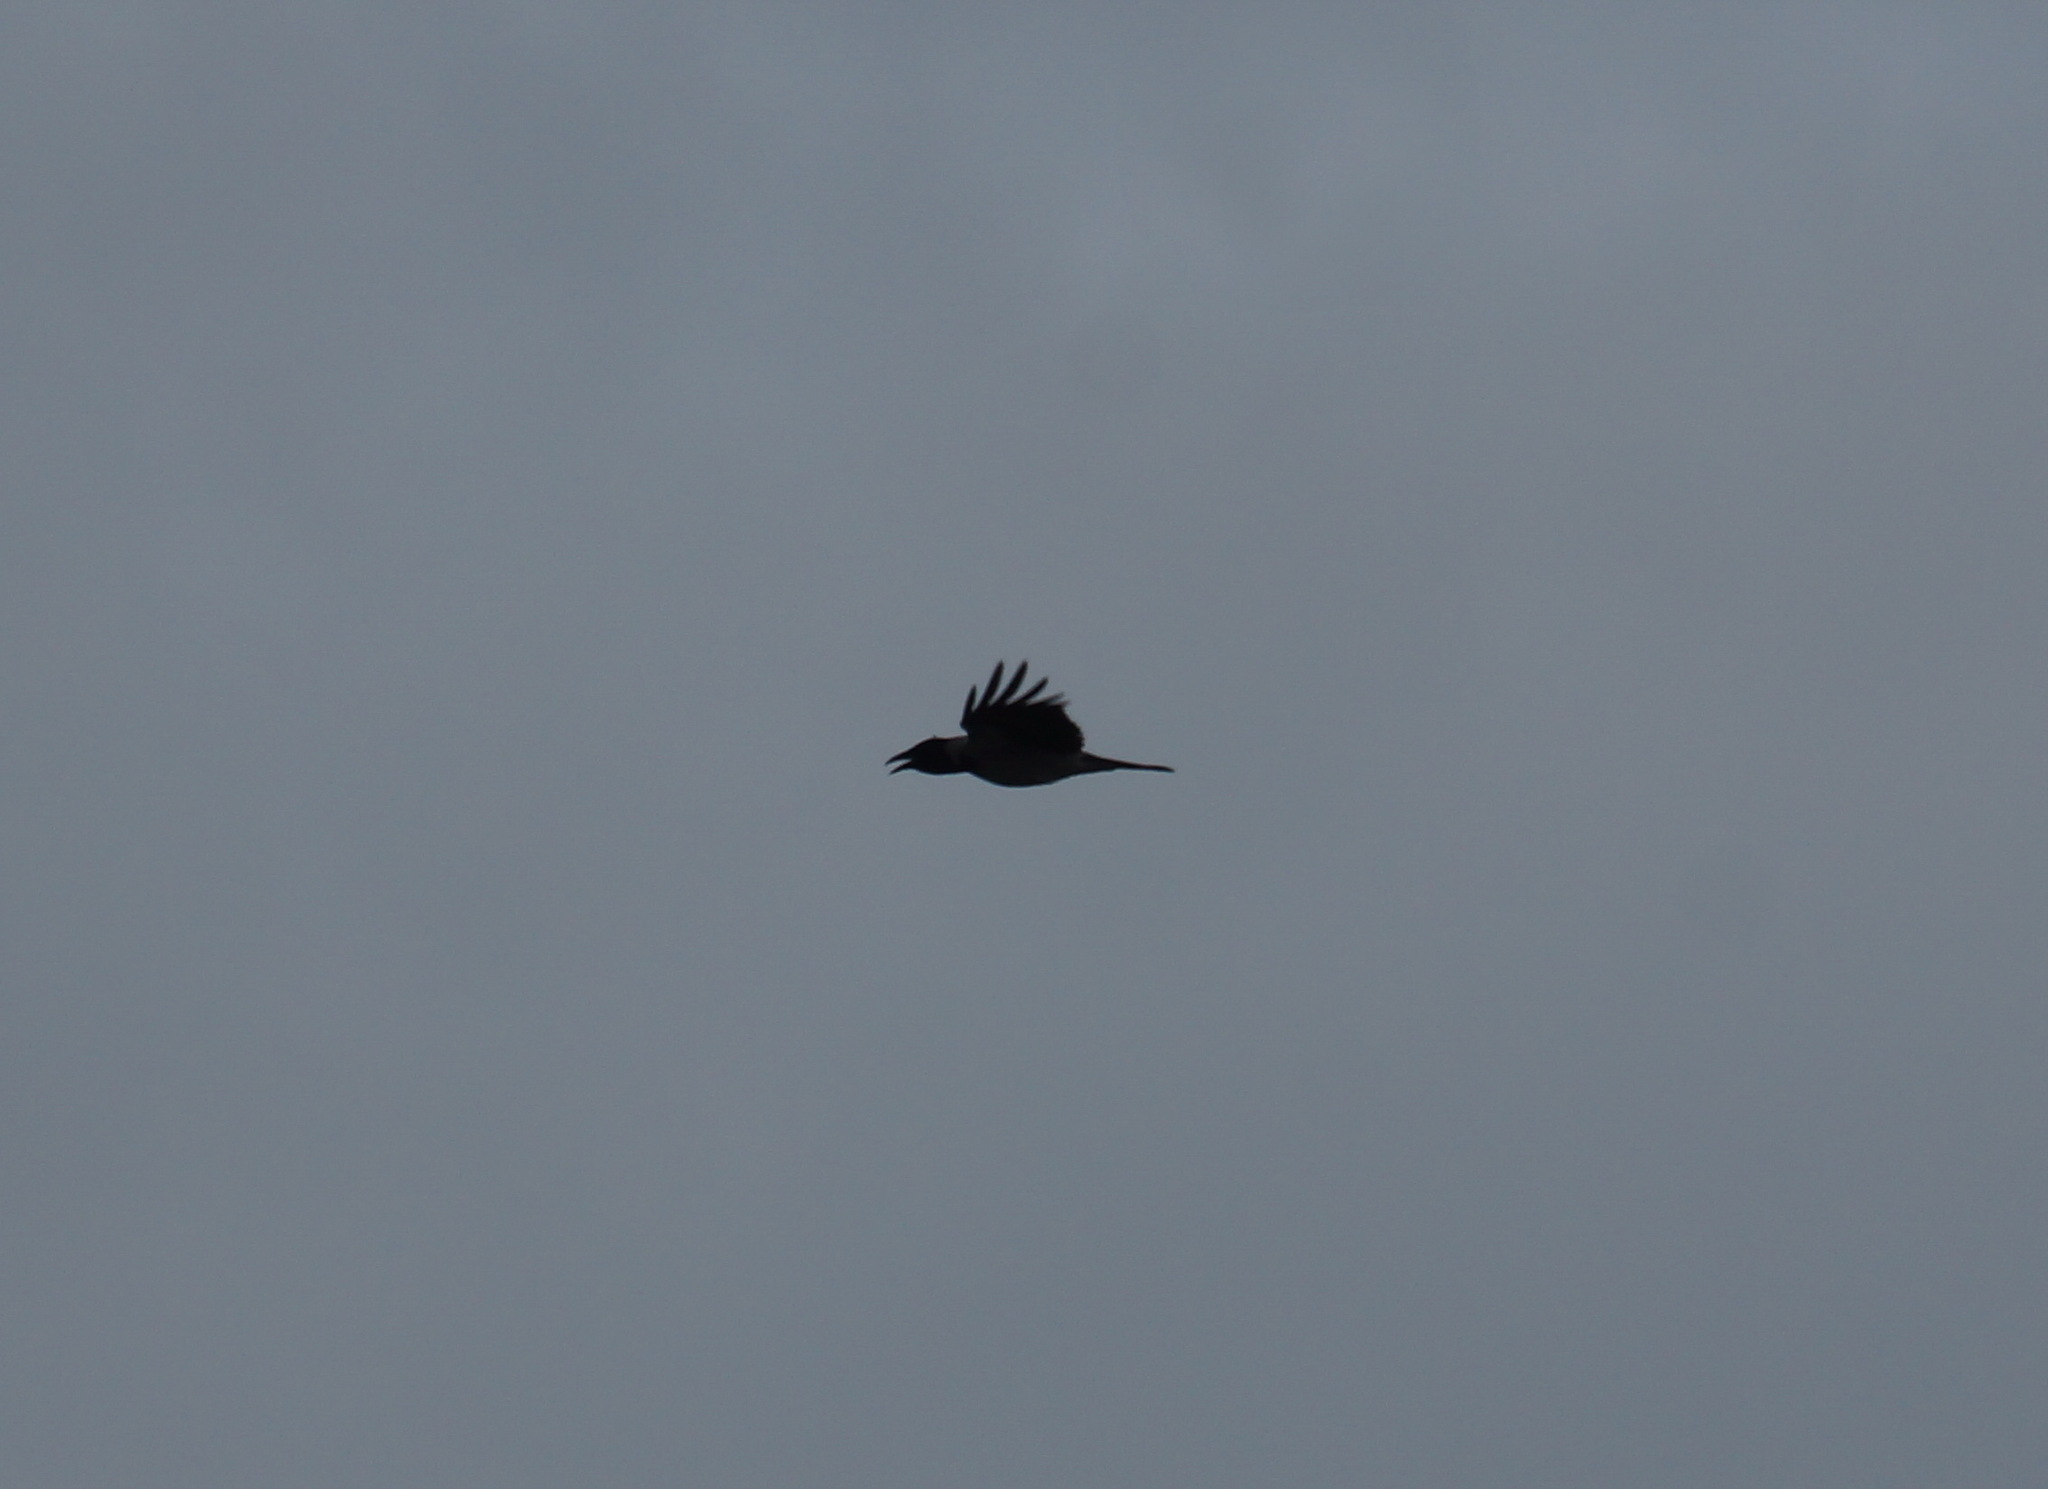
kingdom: Animalia
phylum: Chordata
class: Aves
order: Passeriformes
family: Corvidae
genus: Corvus
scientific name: Corvus cornix
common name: Hooded crow
